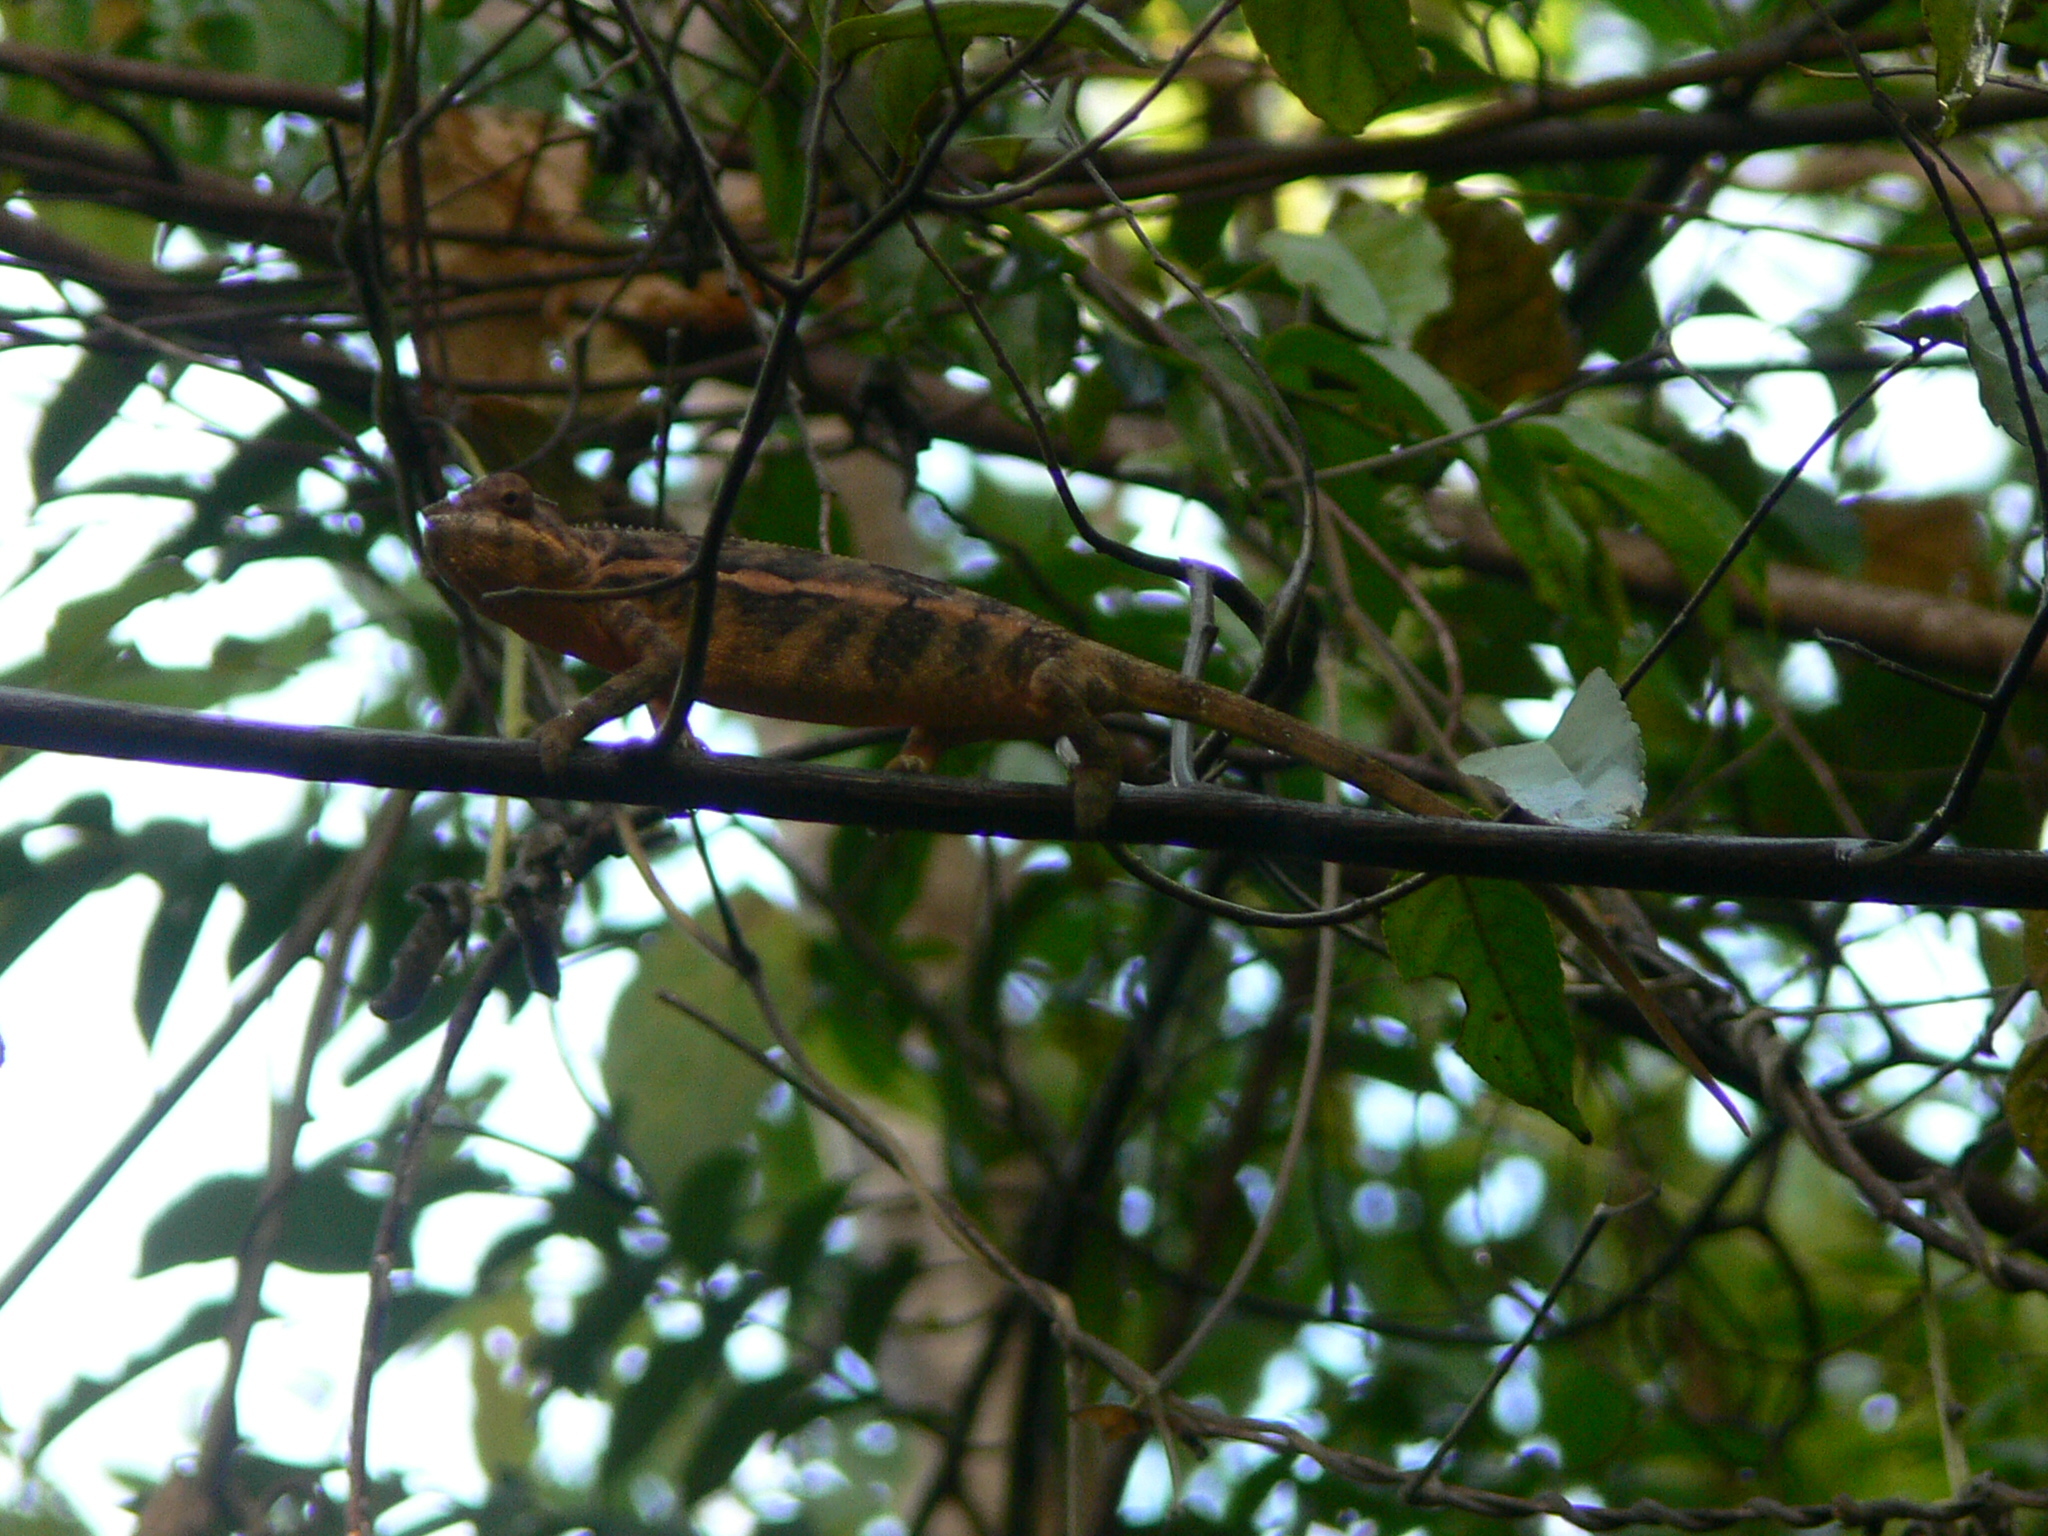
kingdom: Animalia
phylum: Chordata
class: Squamata
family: Chamaeleonidae
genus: Furcifer
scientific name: Furcifer pardalis
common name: Panther chameleon
